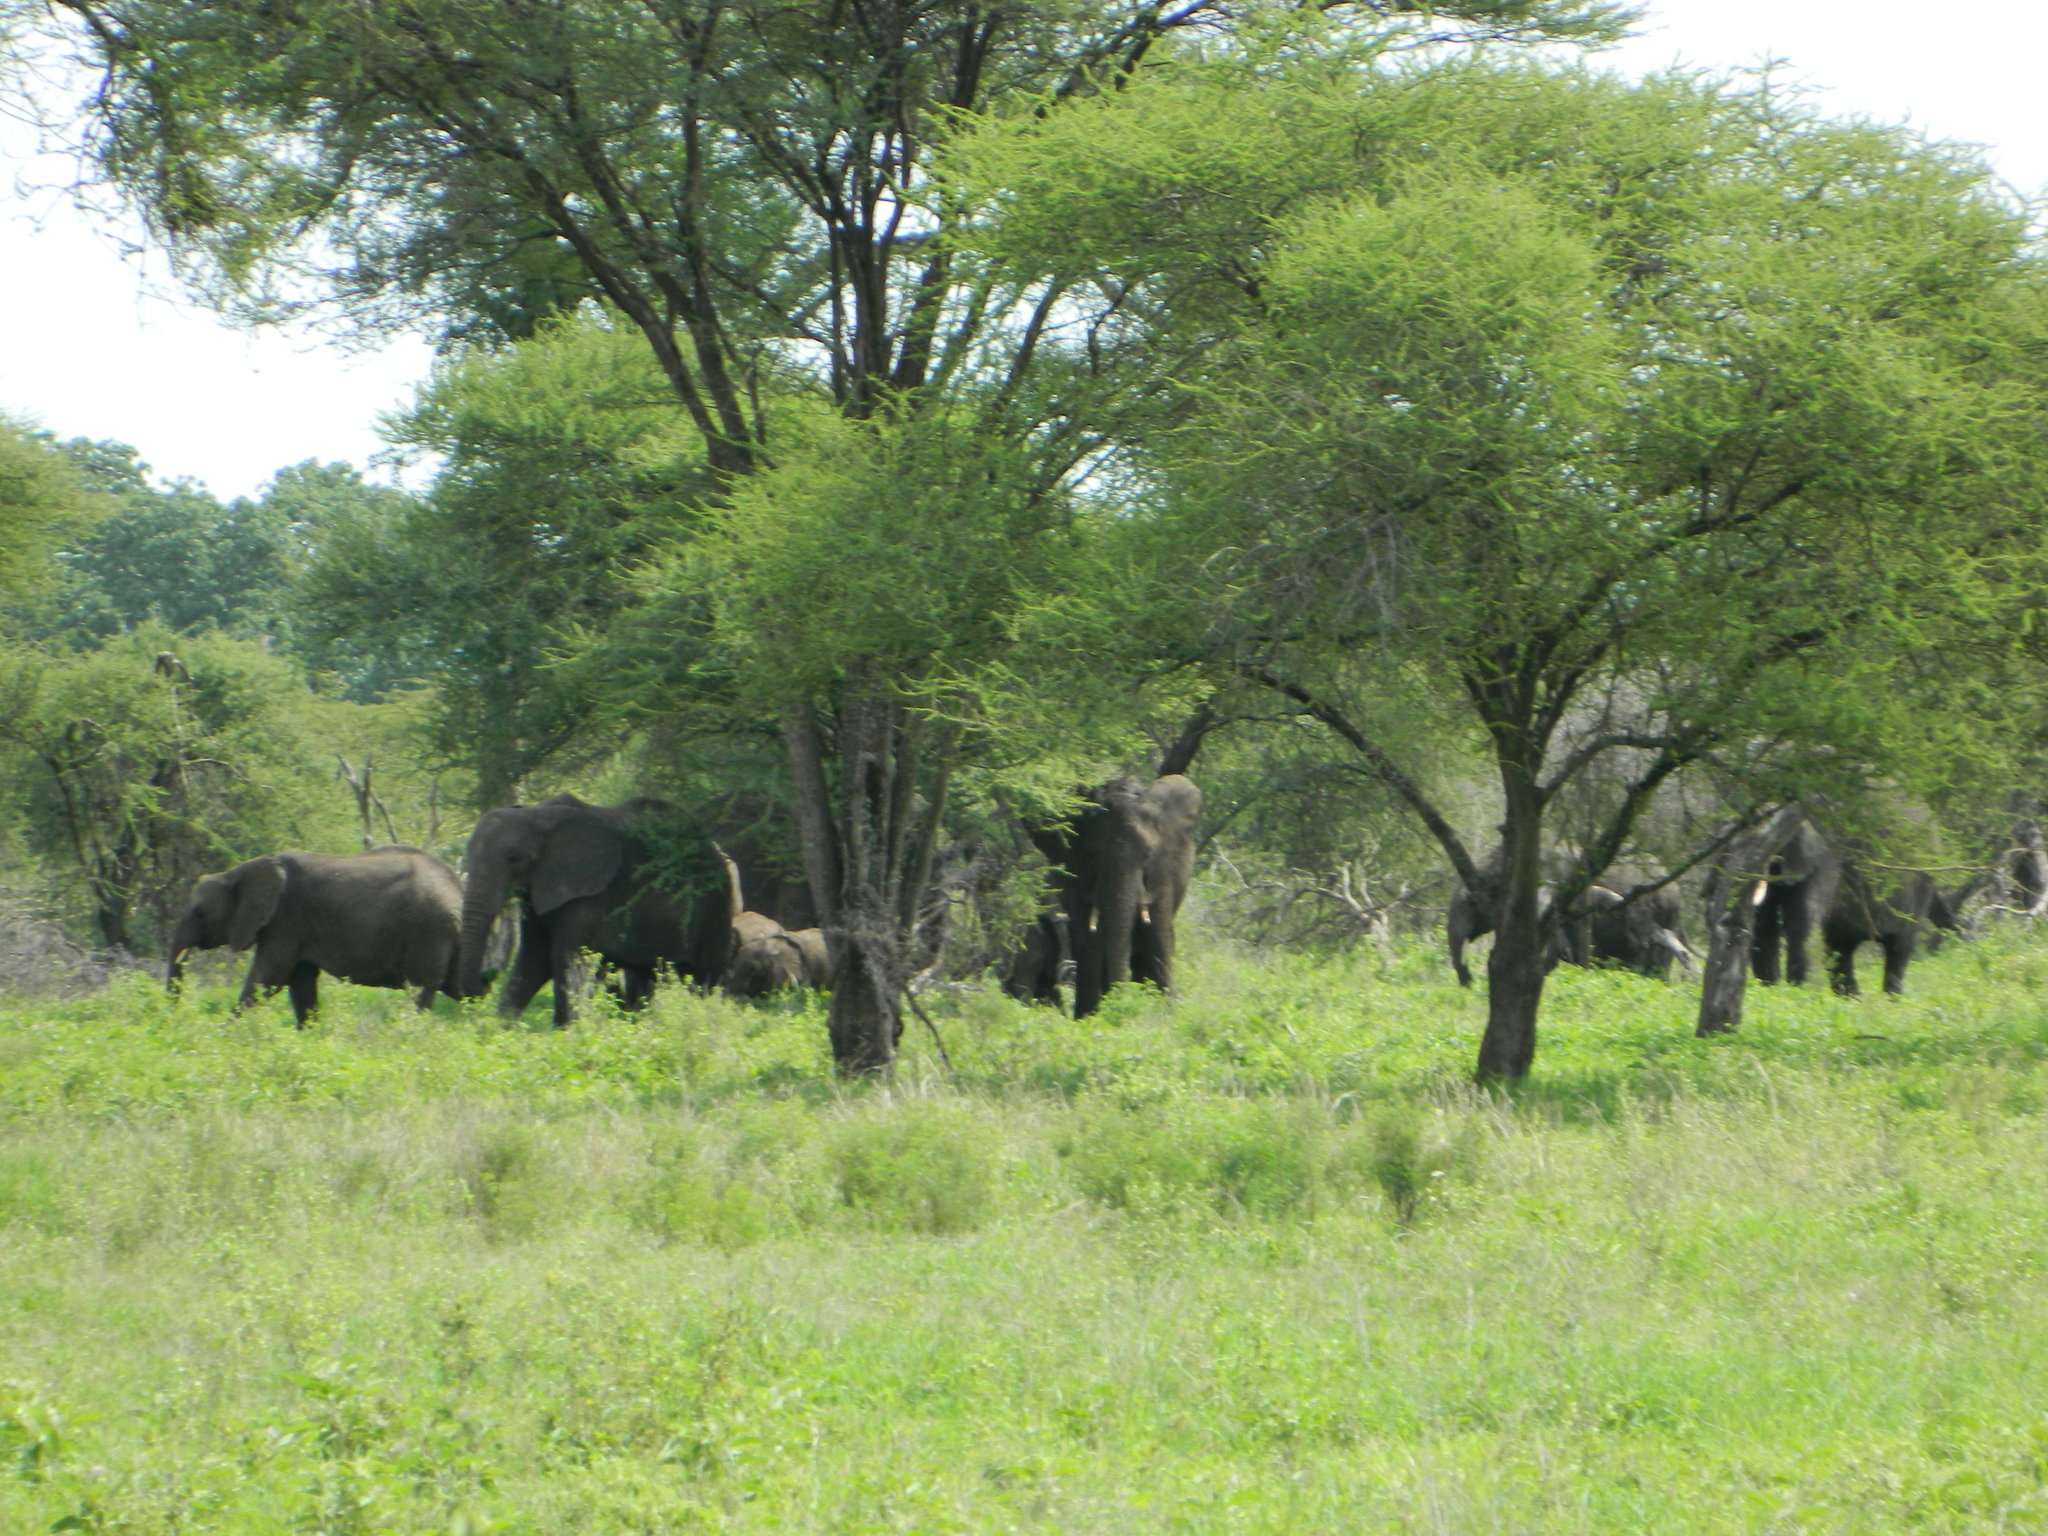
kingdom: Animalia
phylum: Chordata
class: Mammalia
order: Proboscidea
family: Elephantidae
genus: Loxodonta
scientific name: Loxodonta africana
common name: African elephant
